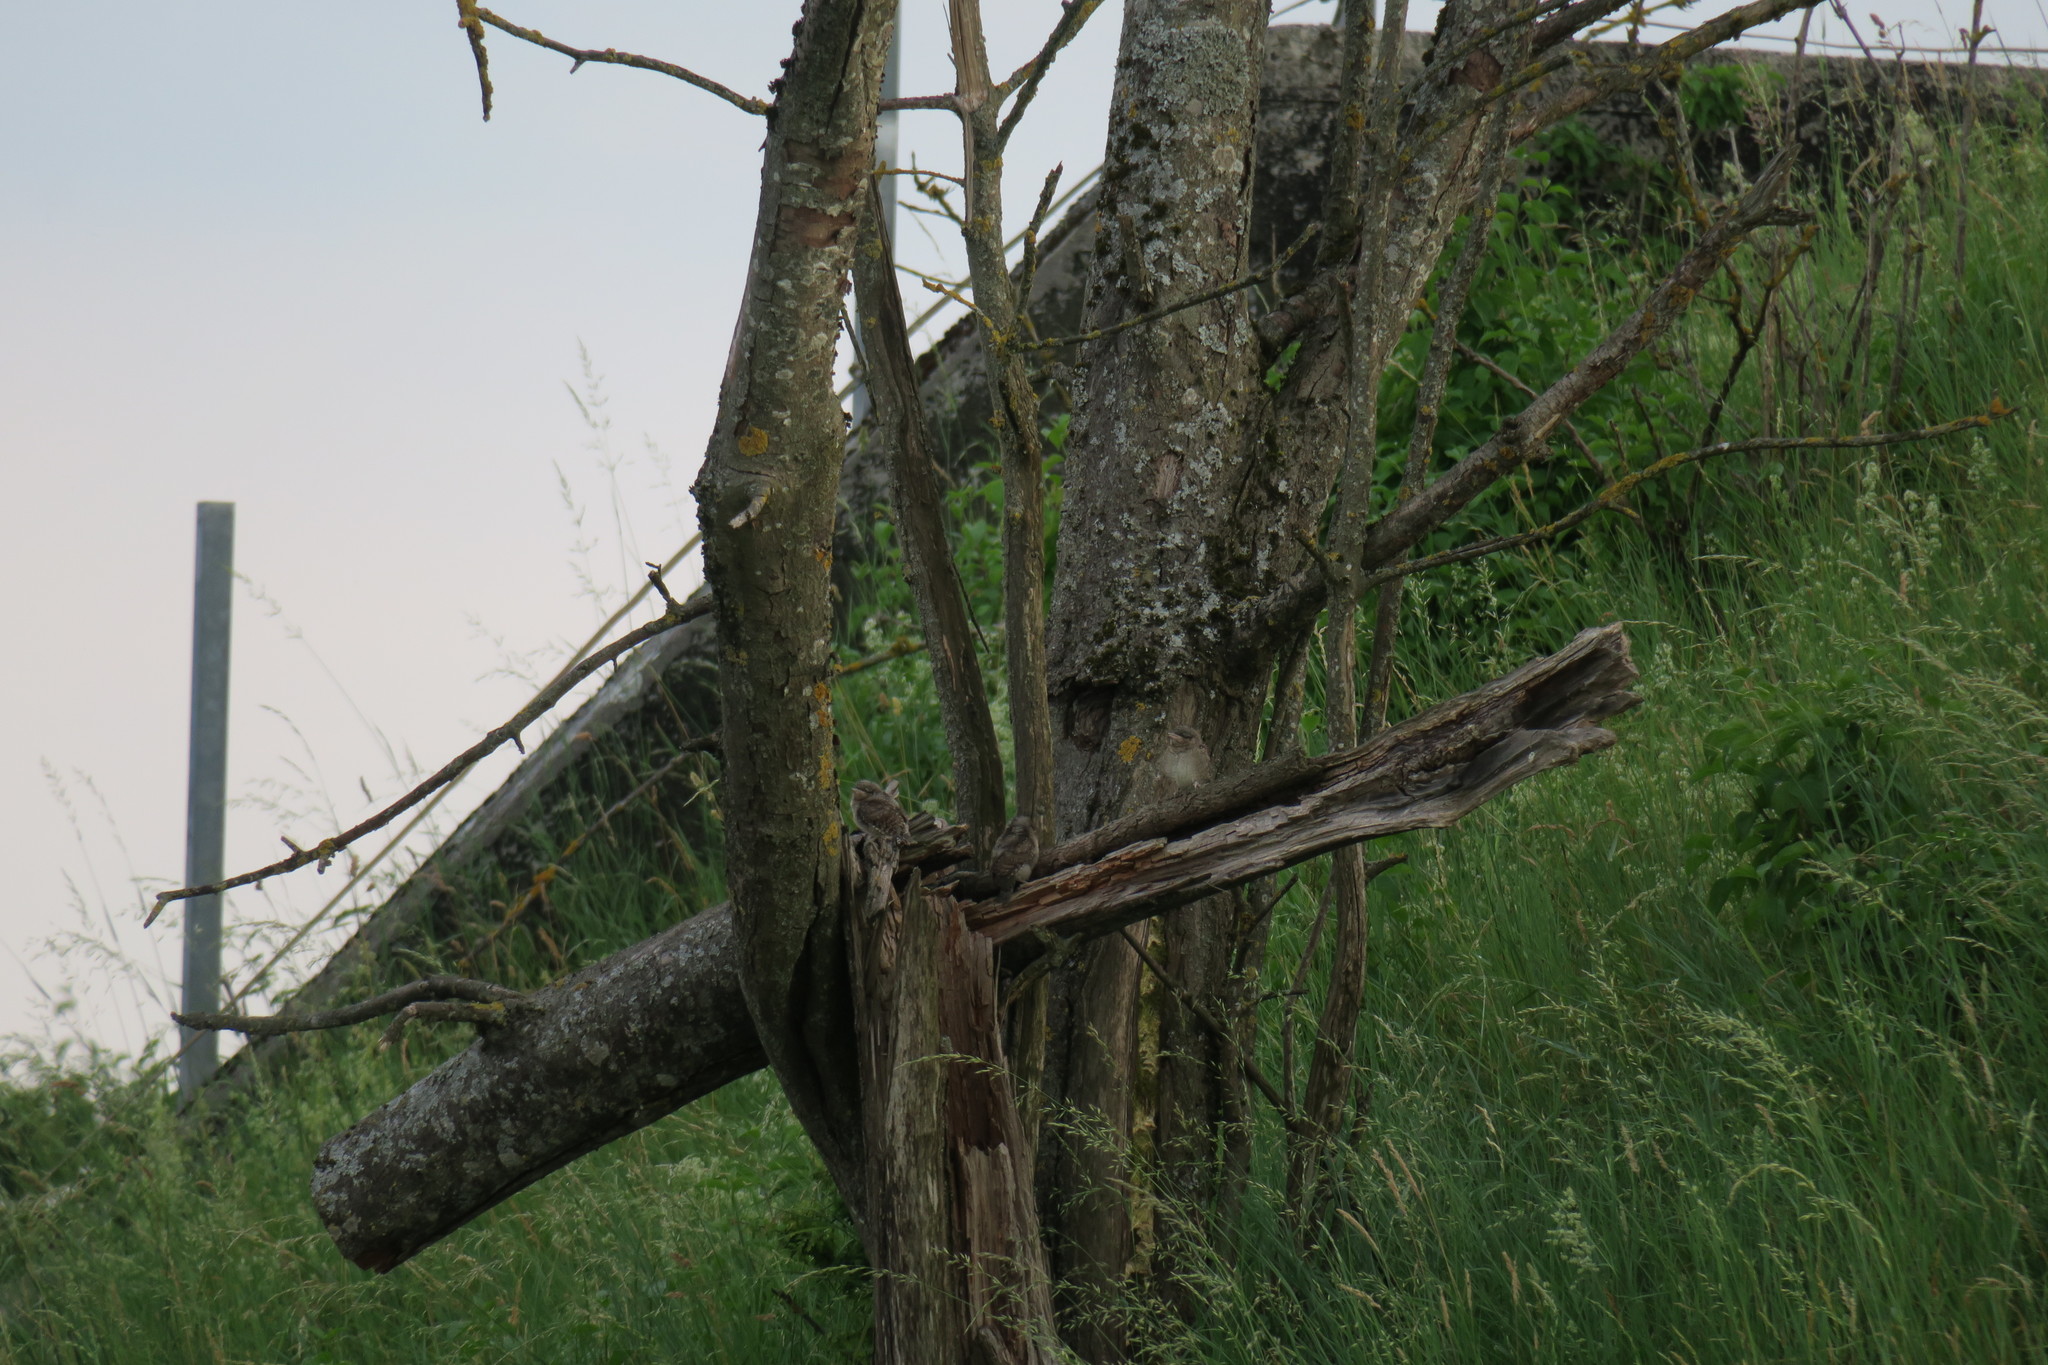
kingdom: Animalia
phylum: Chordata
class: Aves
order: Piciformes
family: Picidae
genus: Jynx
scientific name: Jynx torquilla
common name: Eurasian wryneck
